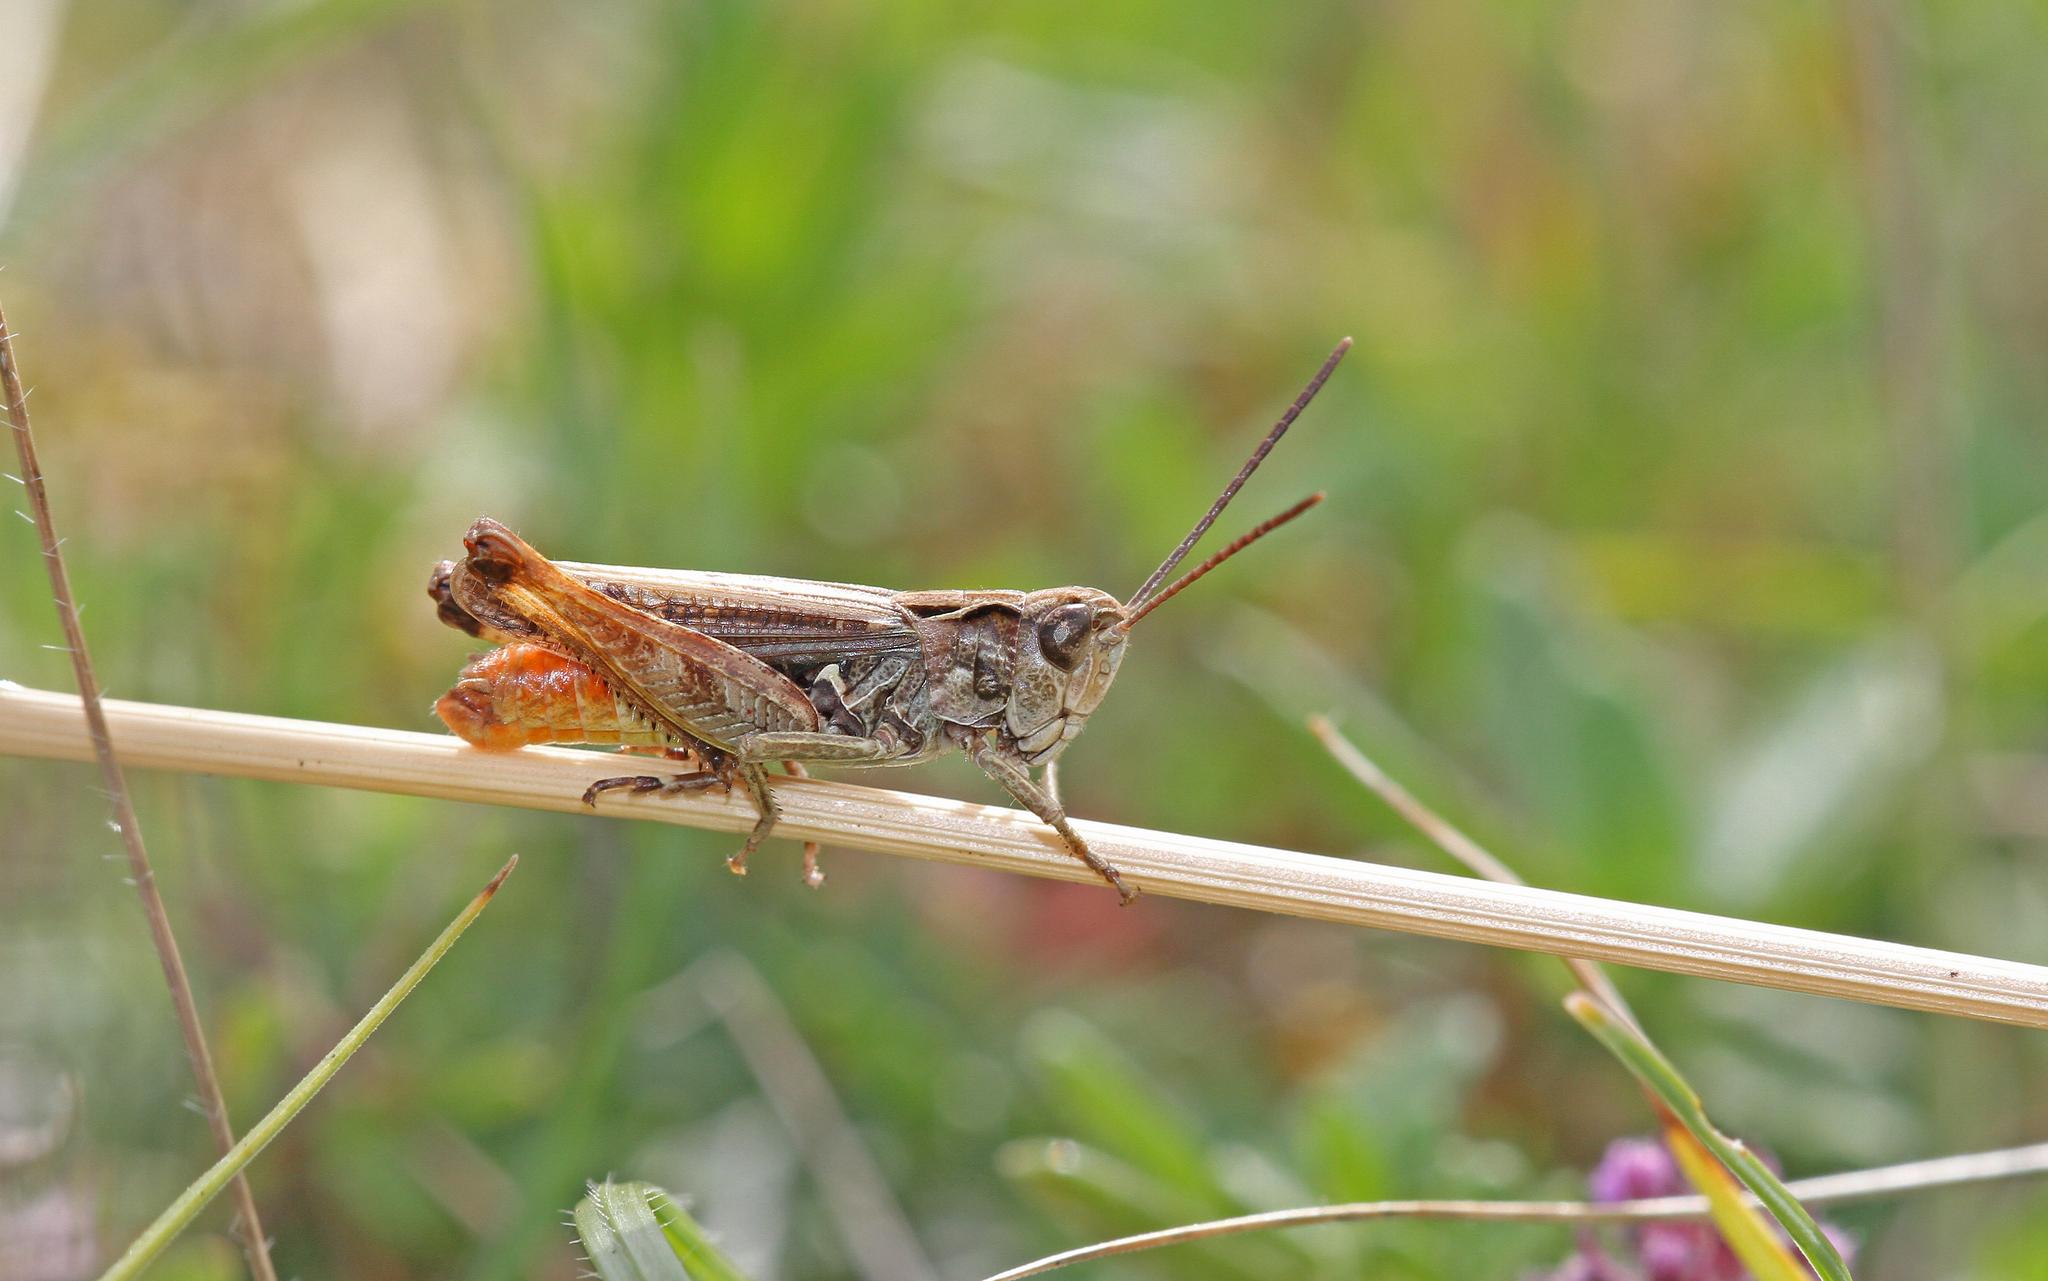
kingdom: Animalia
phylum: Arthropoda
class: Insecta
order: Orthoptera
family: Acrididae
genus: Omocestus
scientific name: Omocestus haemorrhoidalis
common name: Orange-tipped grasshopper
